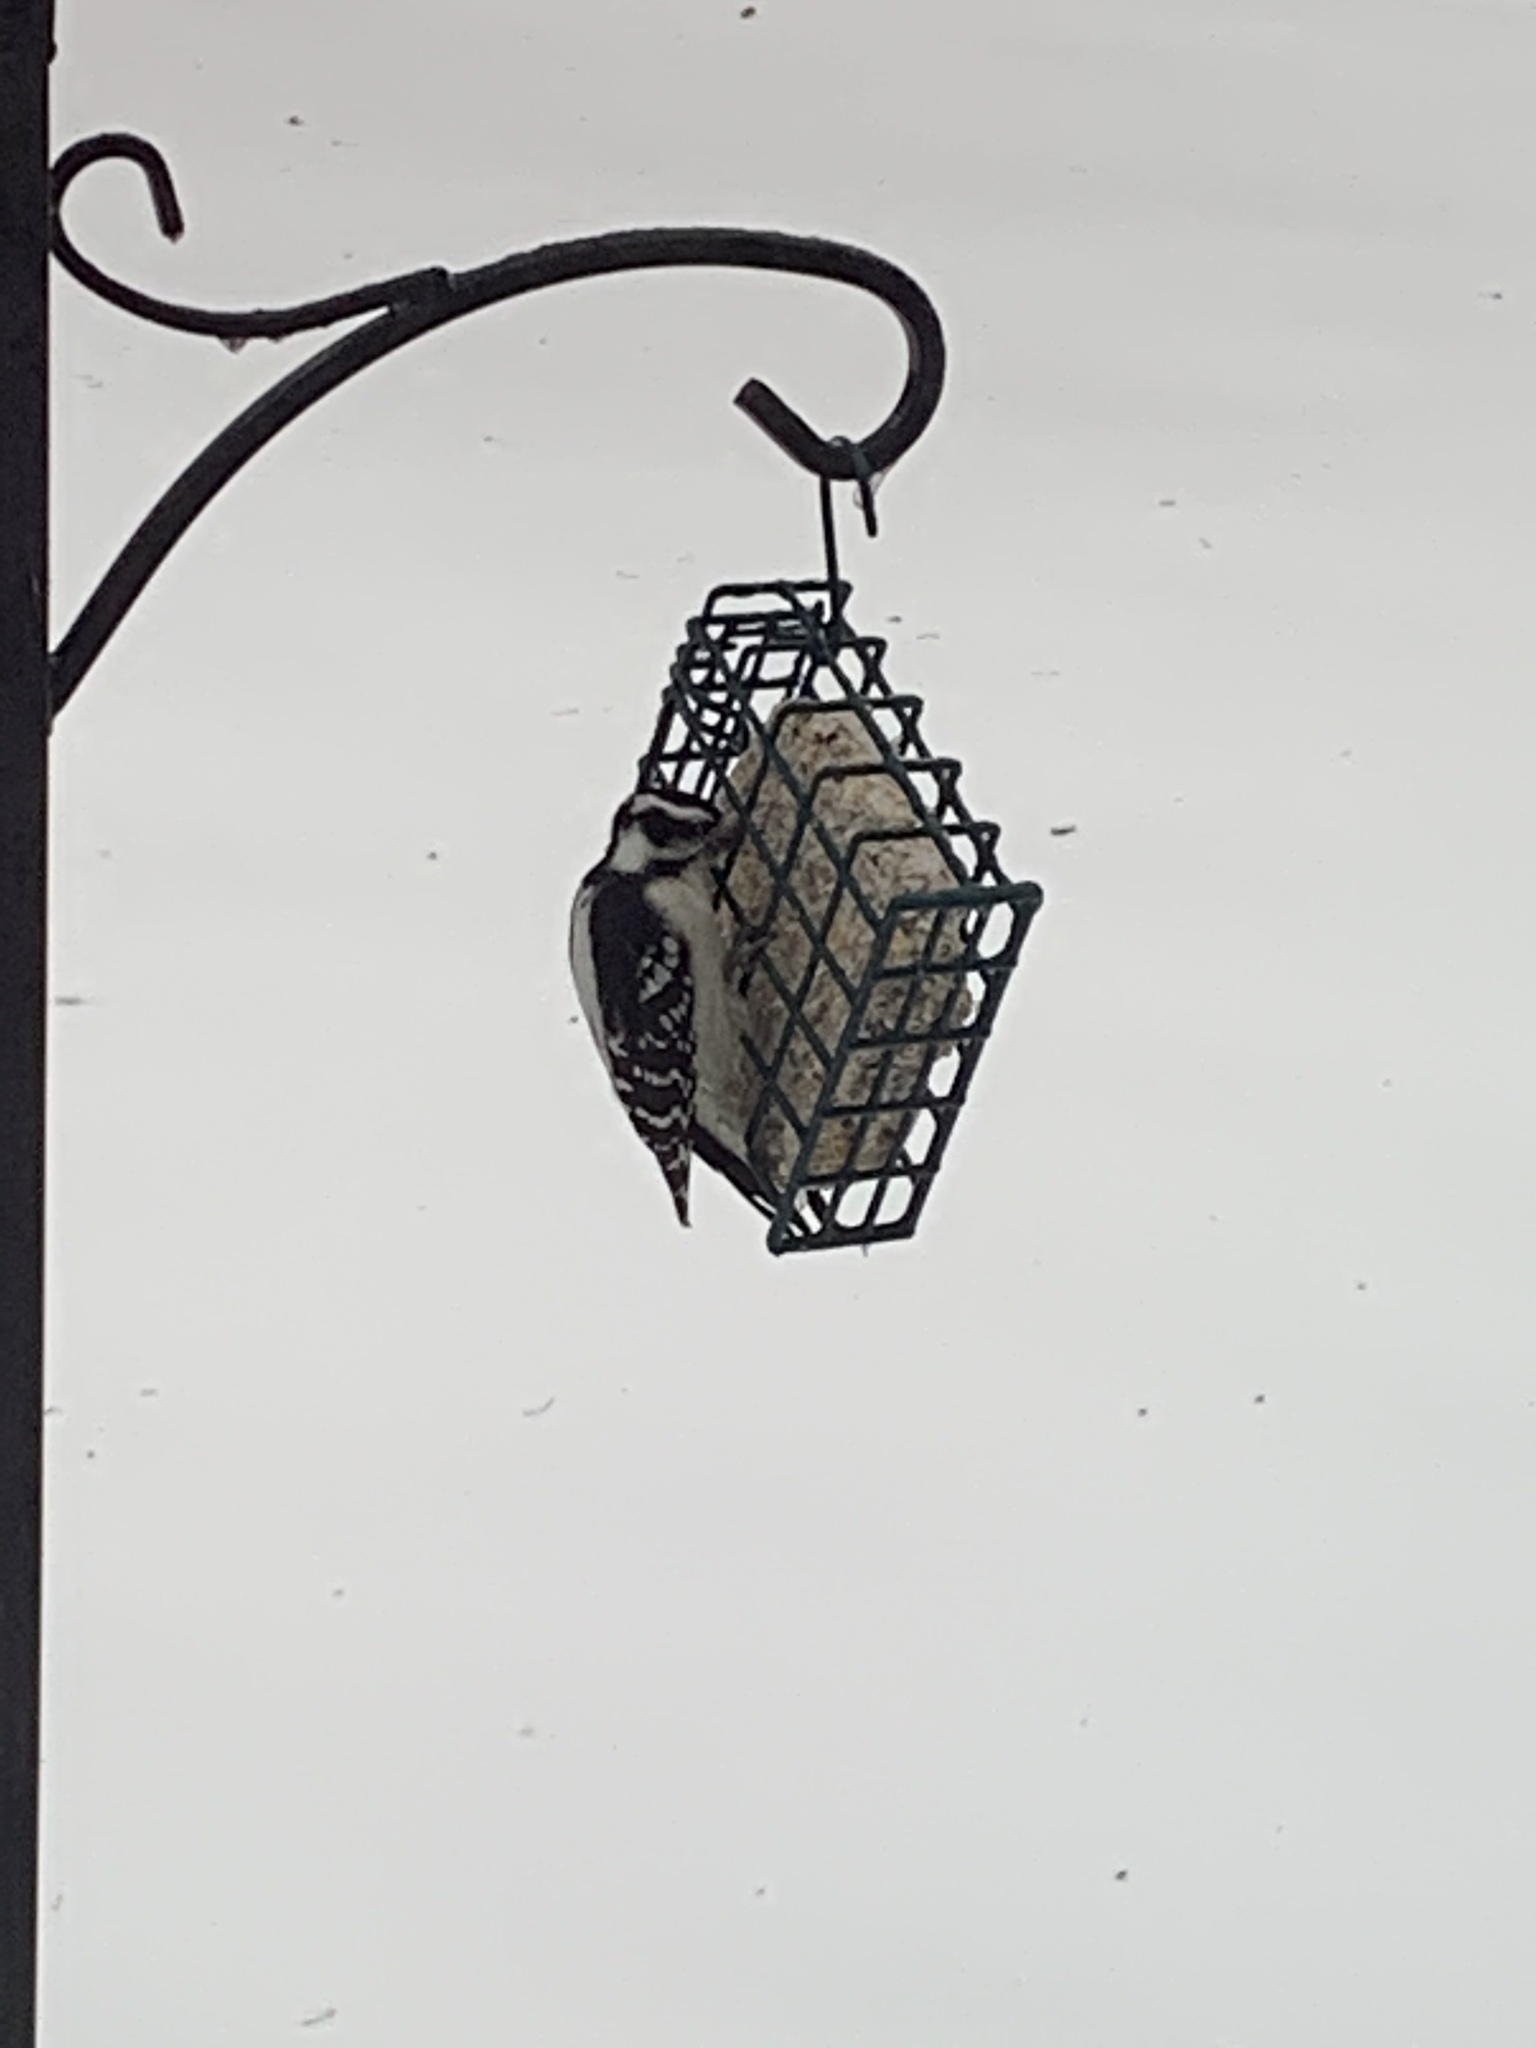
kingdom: Animalia
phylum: Chordata
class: Aves
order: Piciformes
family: Picidae
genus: Dryobates
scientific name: Dryobates pubescens
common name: Downy woodpecker
